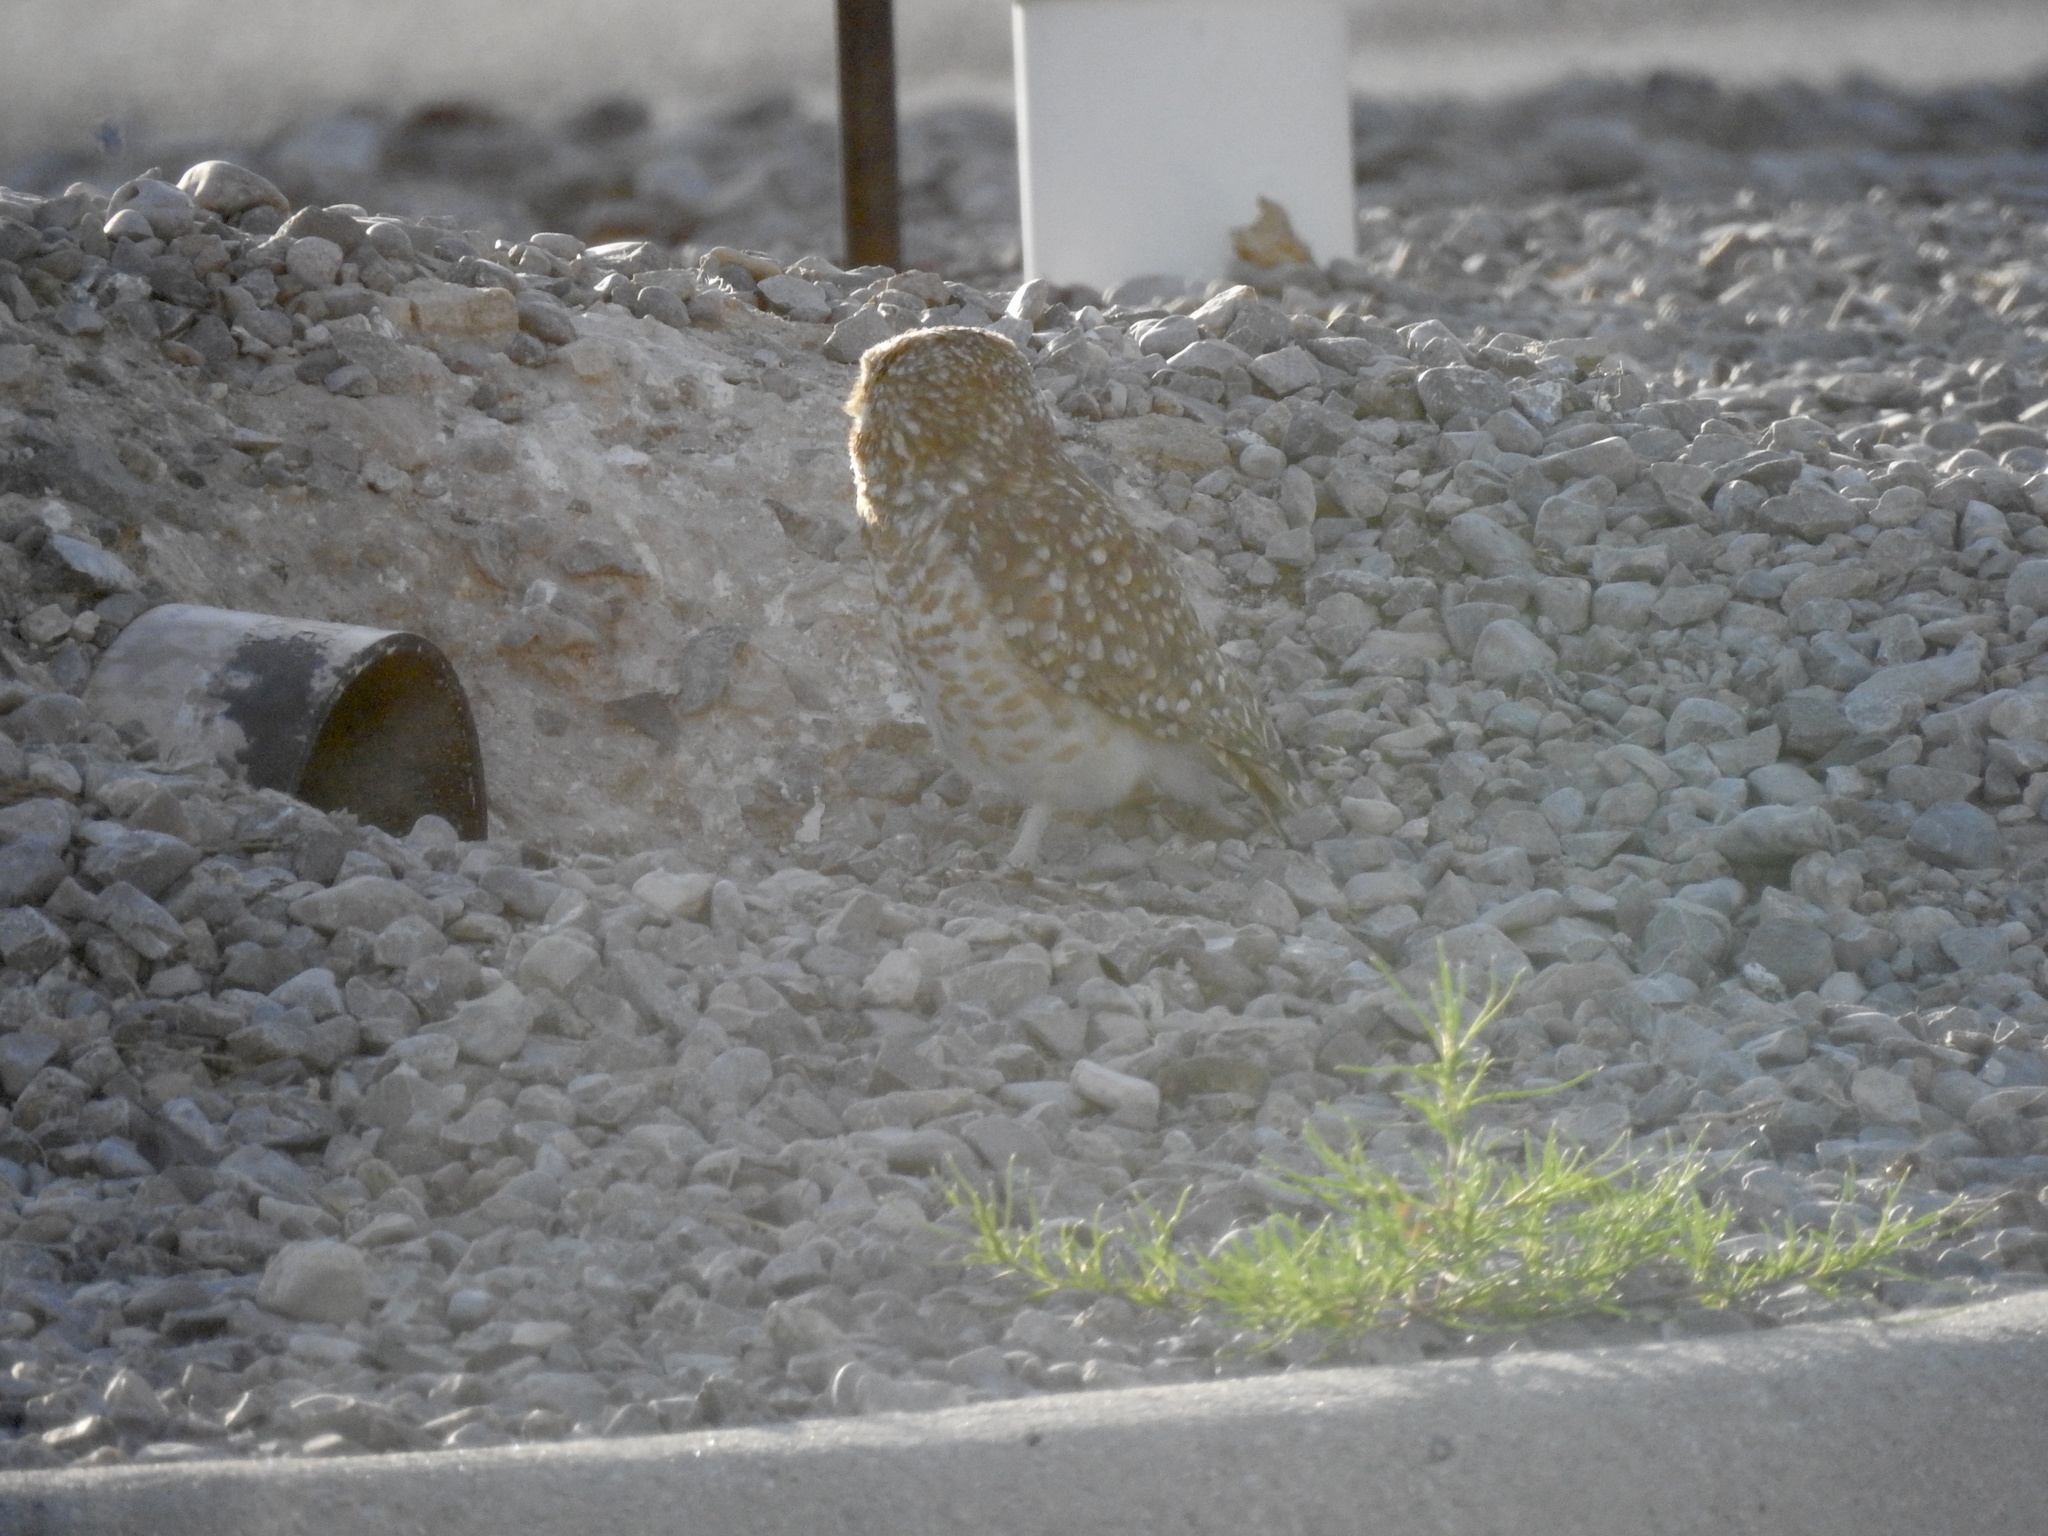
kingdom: Animalia
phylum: Chordata
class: Aves
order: Strigiformes
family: Strigidae
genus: Athene
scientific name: Athene cunicularia
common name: Burrowing owl
